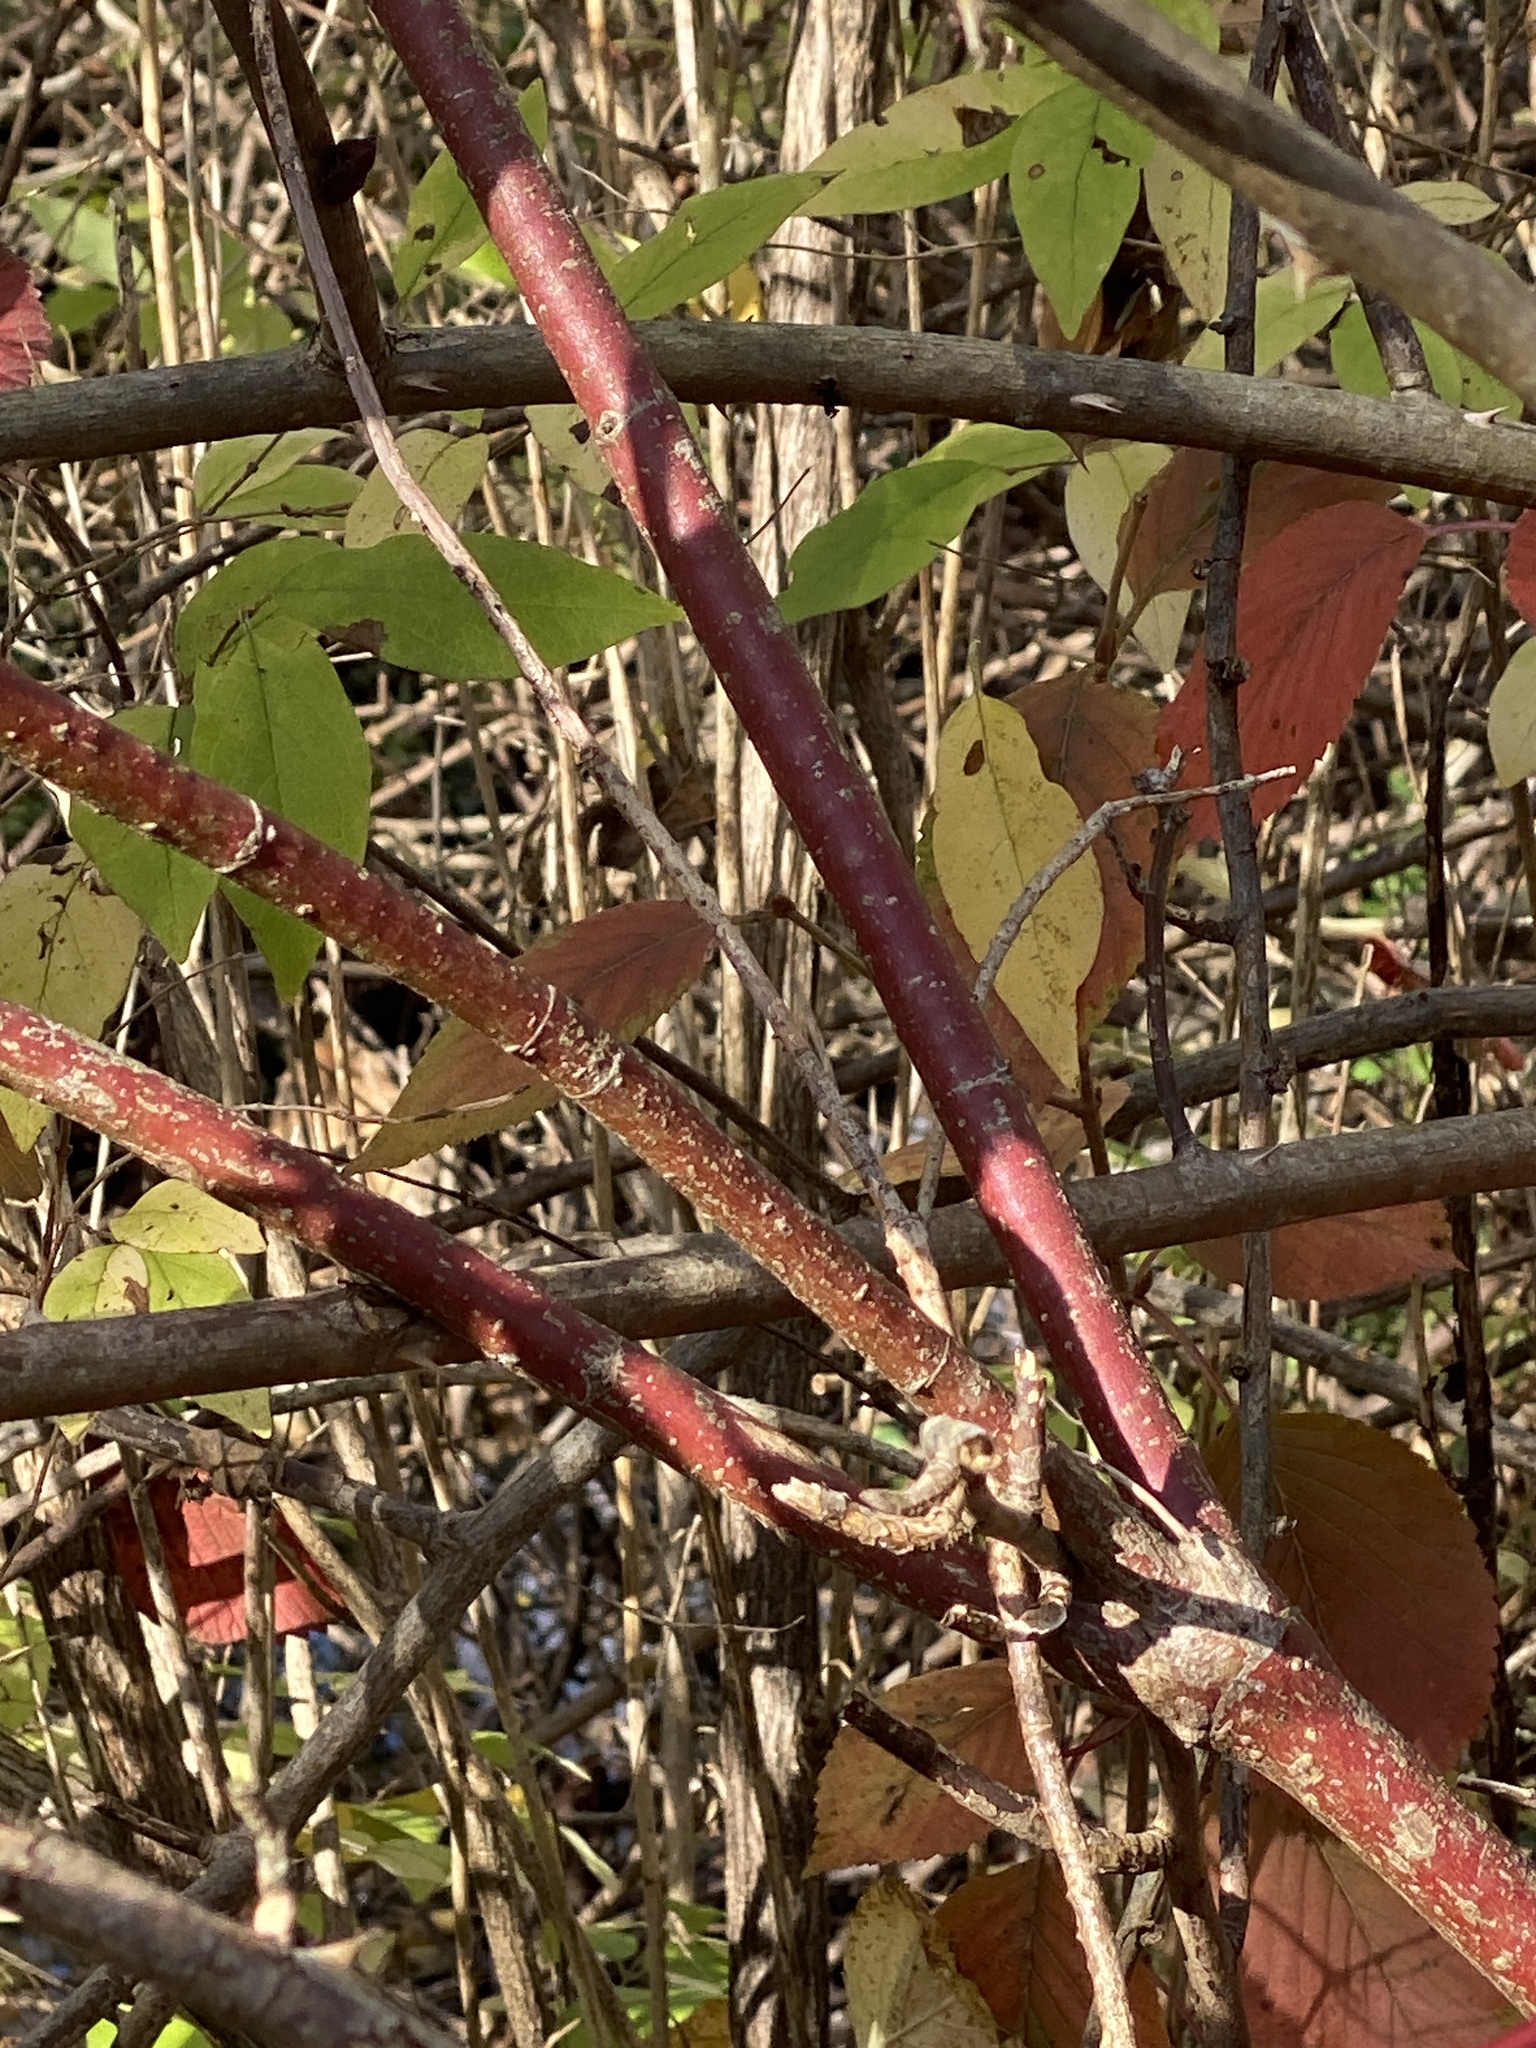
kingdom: Plantae
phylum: Tracheophyta
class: Magnoliopsida
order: Cornales
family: Cornaceae
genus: Cornus
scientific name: Cornus amomum
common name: Silky dogwood
